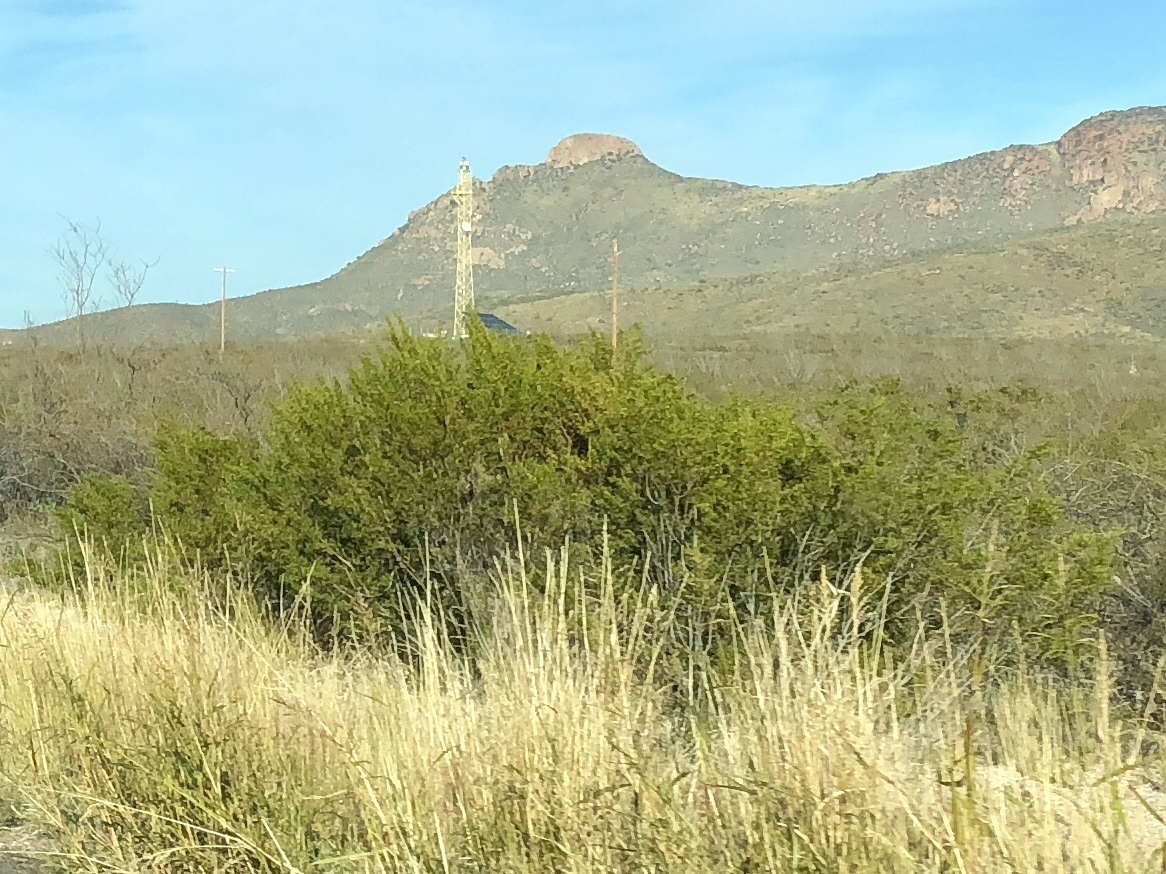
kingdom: Plantae
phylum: Tracheophyta
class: Magnoliopsida
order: Zygophyllales
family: Zygophyllaceae
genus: Larrea
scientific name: Larrea tridentata
